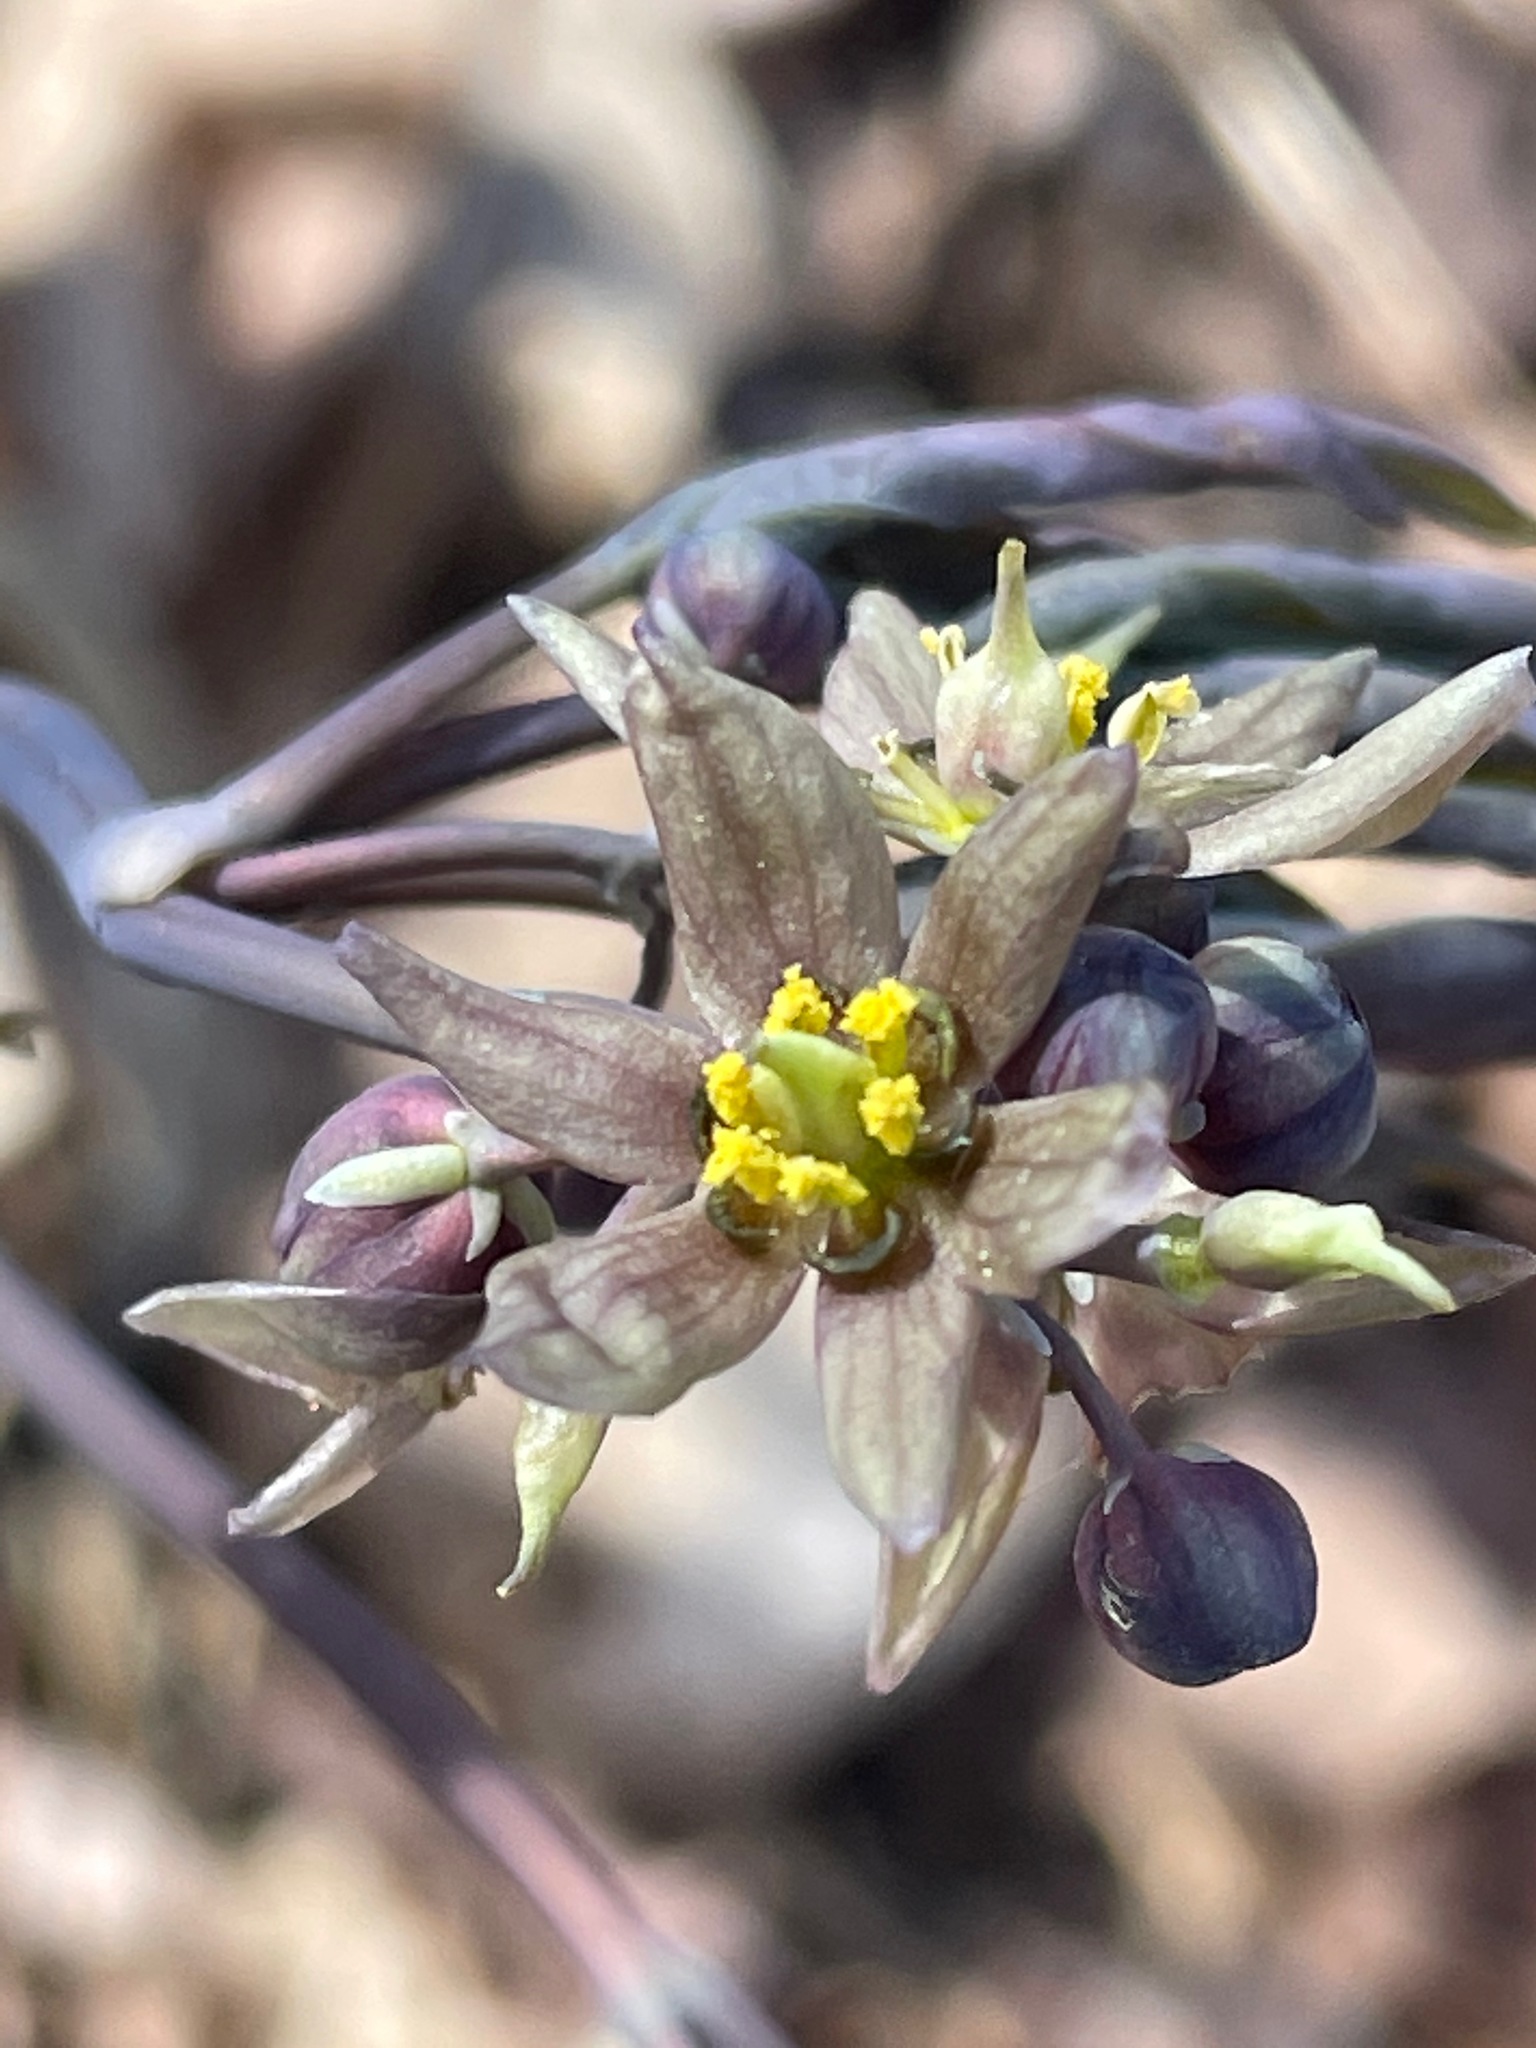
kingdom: Plantae
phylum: Tracheophyta
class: Magnoliopsida
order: Ranunculales
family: Berberidaceae
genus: Caulophyllum
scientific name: Caulophyllum giganteum
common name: Blue cohosh
